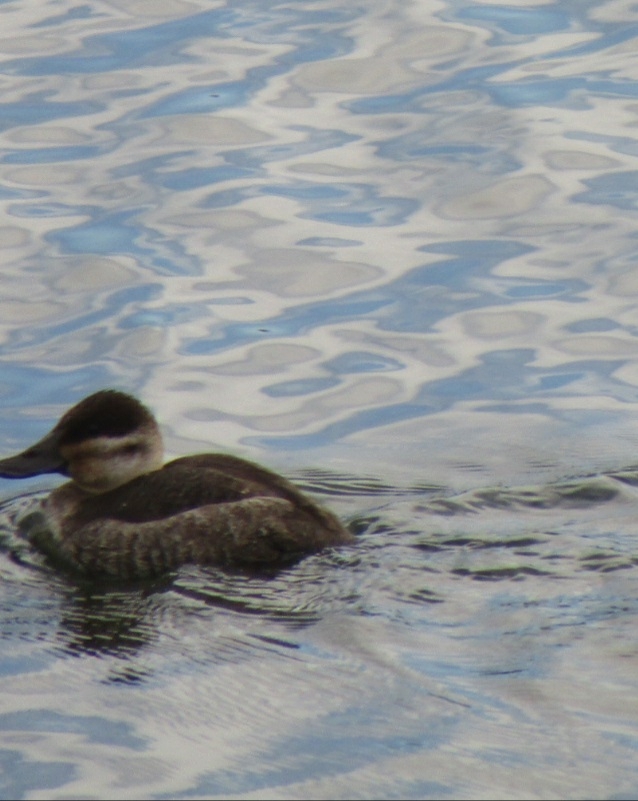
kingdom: Animalia
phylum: Chordata
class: Aves
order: Anseriformes
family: Anatidae
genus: Oxyura
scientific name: Oxyura jamaicensis
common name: Ruddy duck
